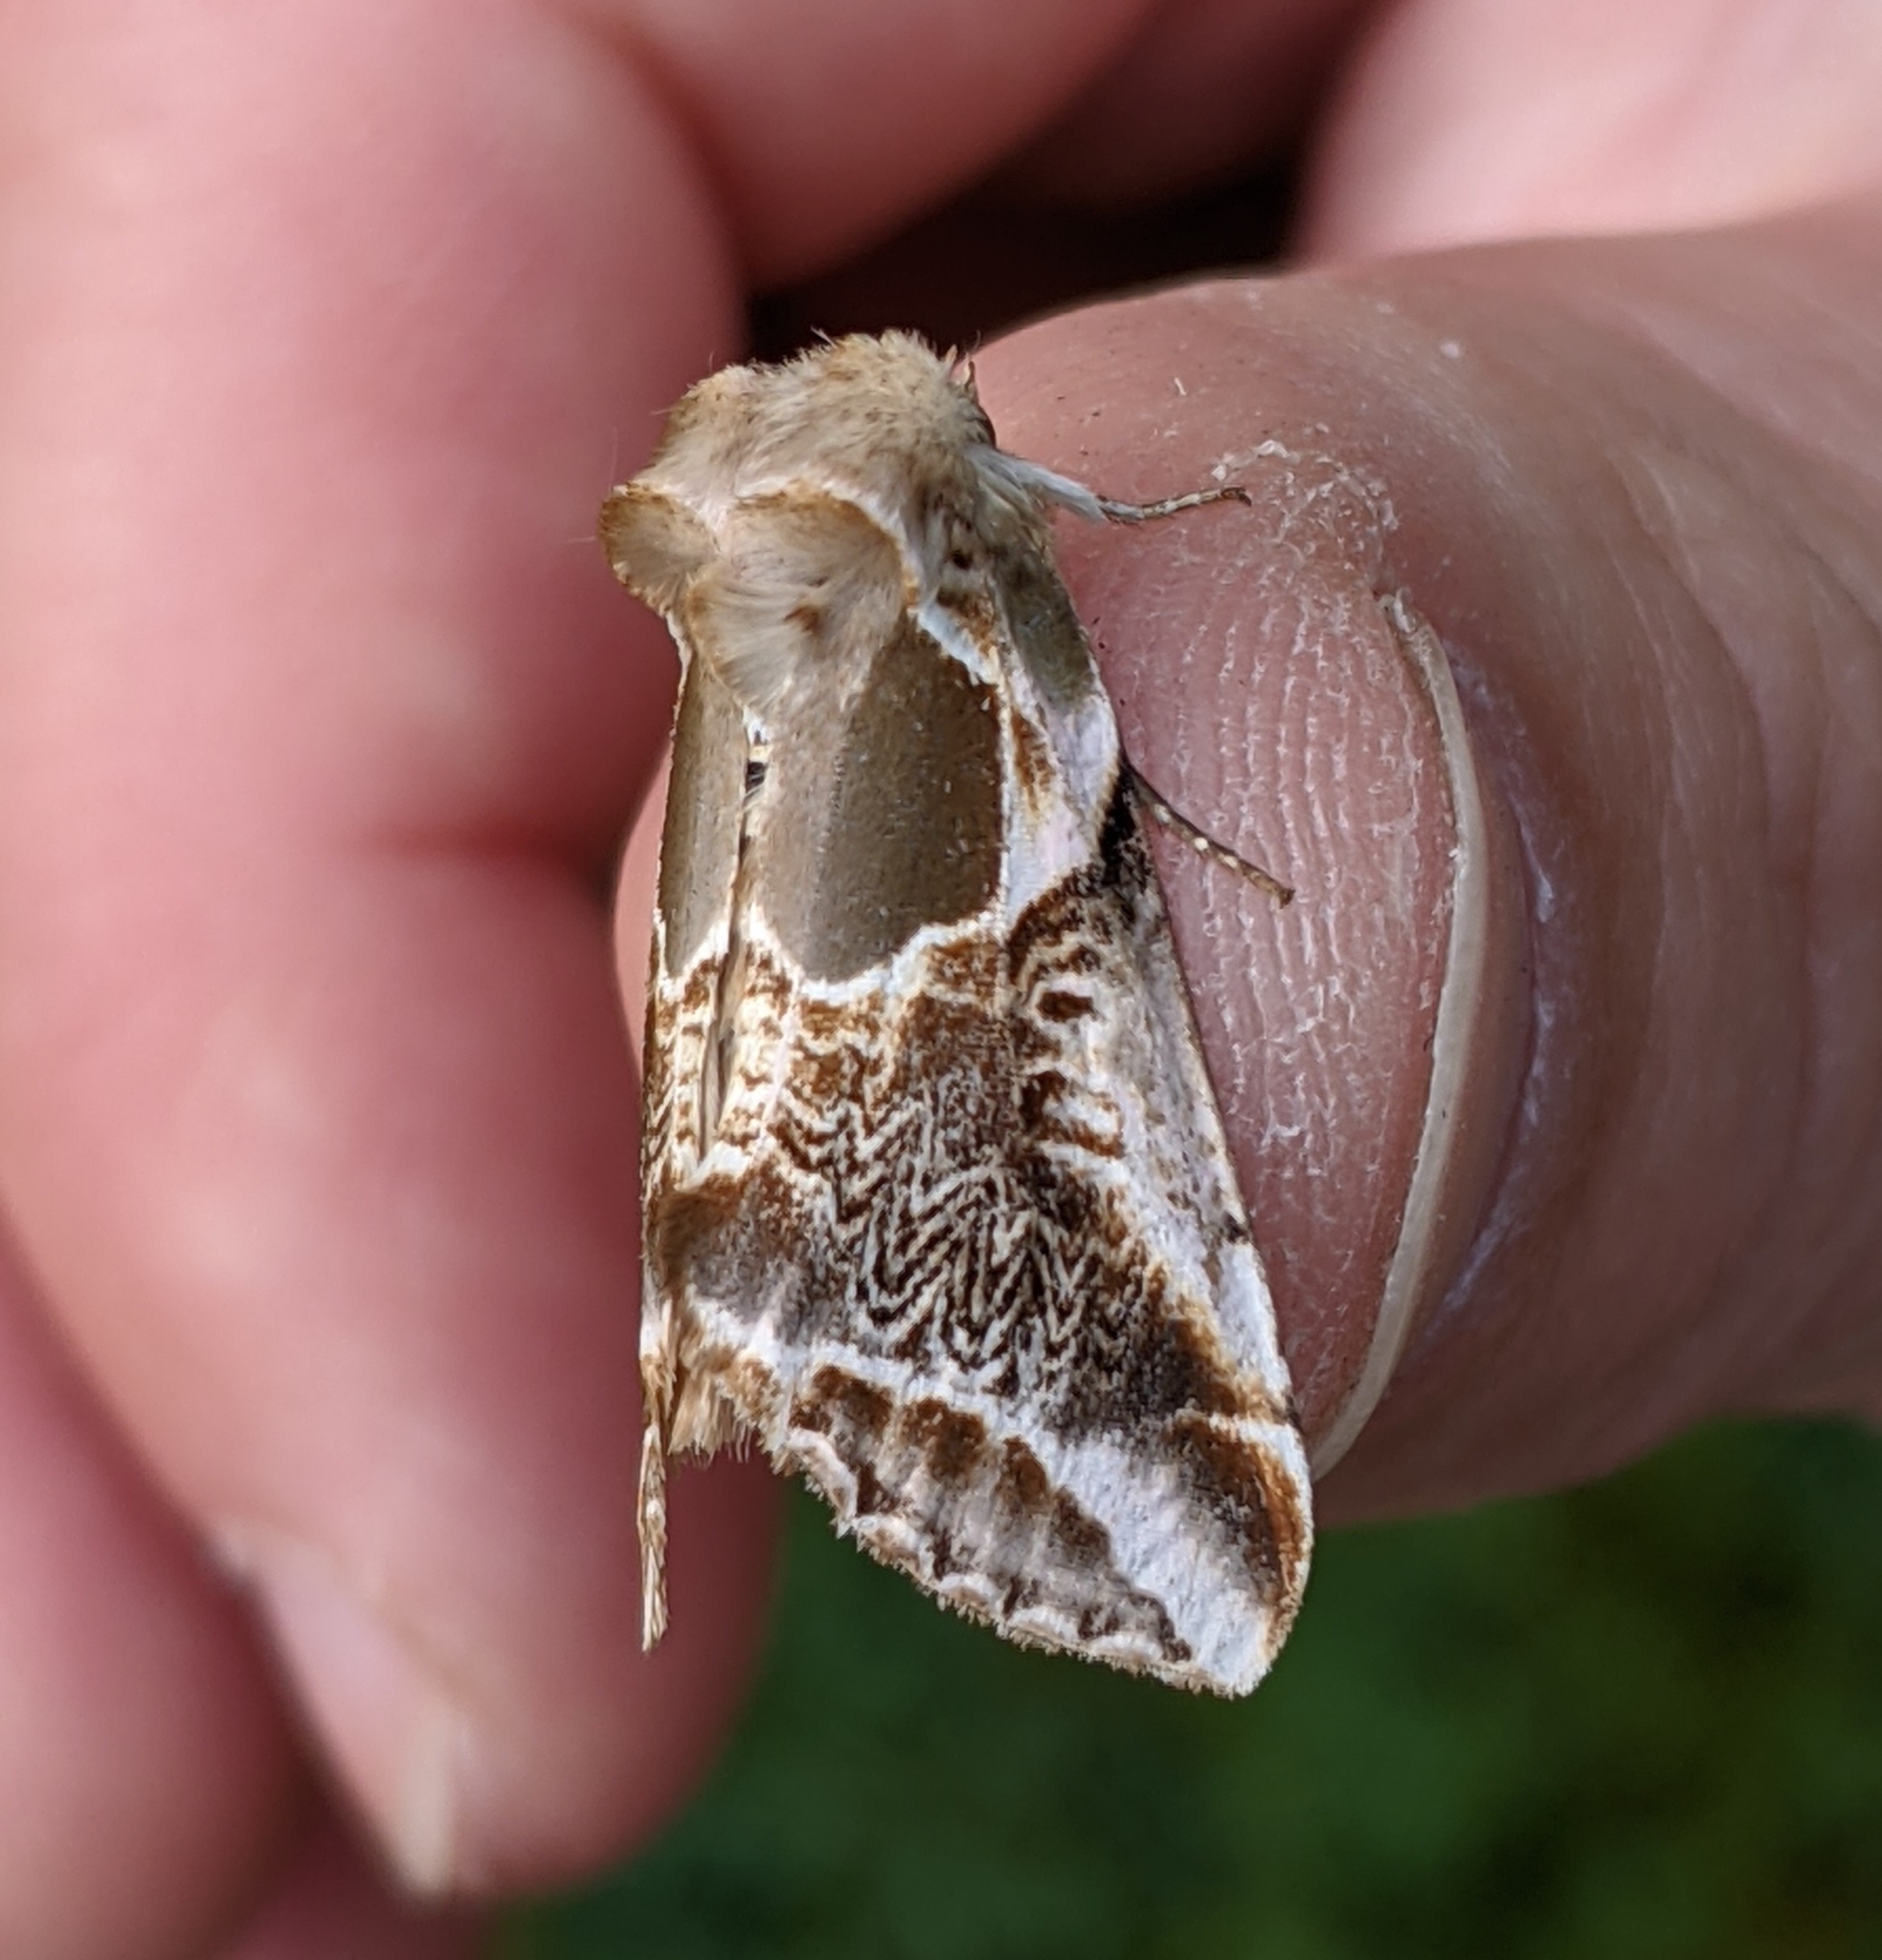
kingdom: Animalia
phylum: Arthropoda
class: Insecta
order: Lepidoptera
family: Drepanidae
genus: Habrosyne
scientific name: Habrosyne scripta
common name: Lettered habrosyne moth
